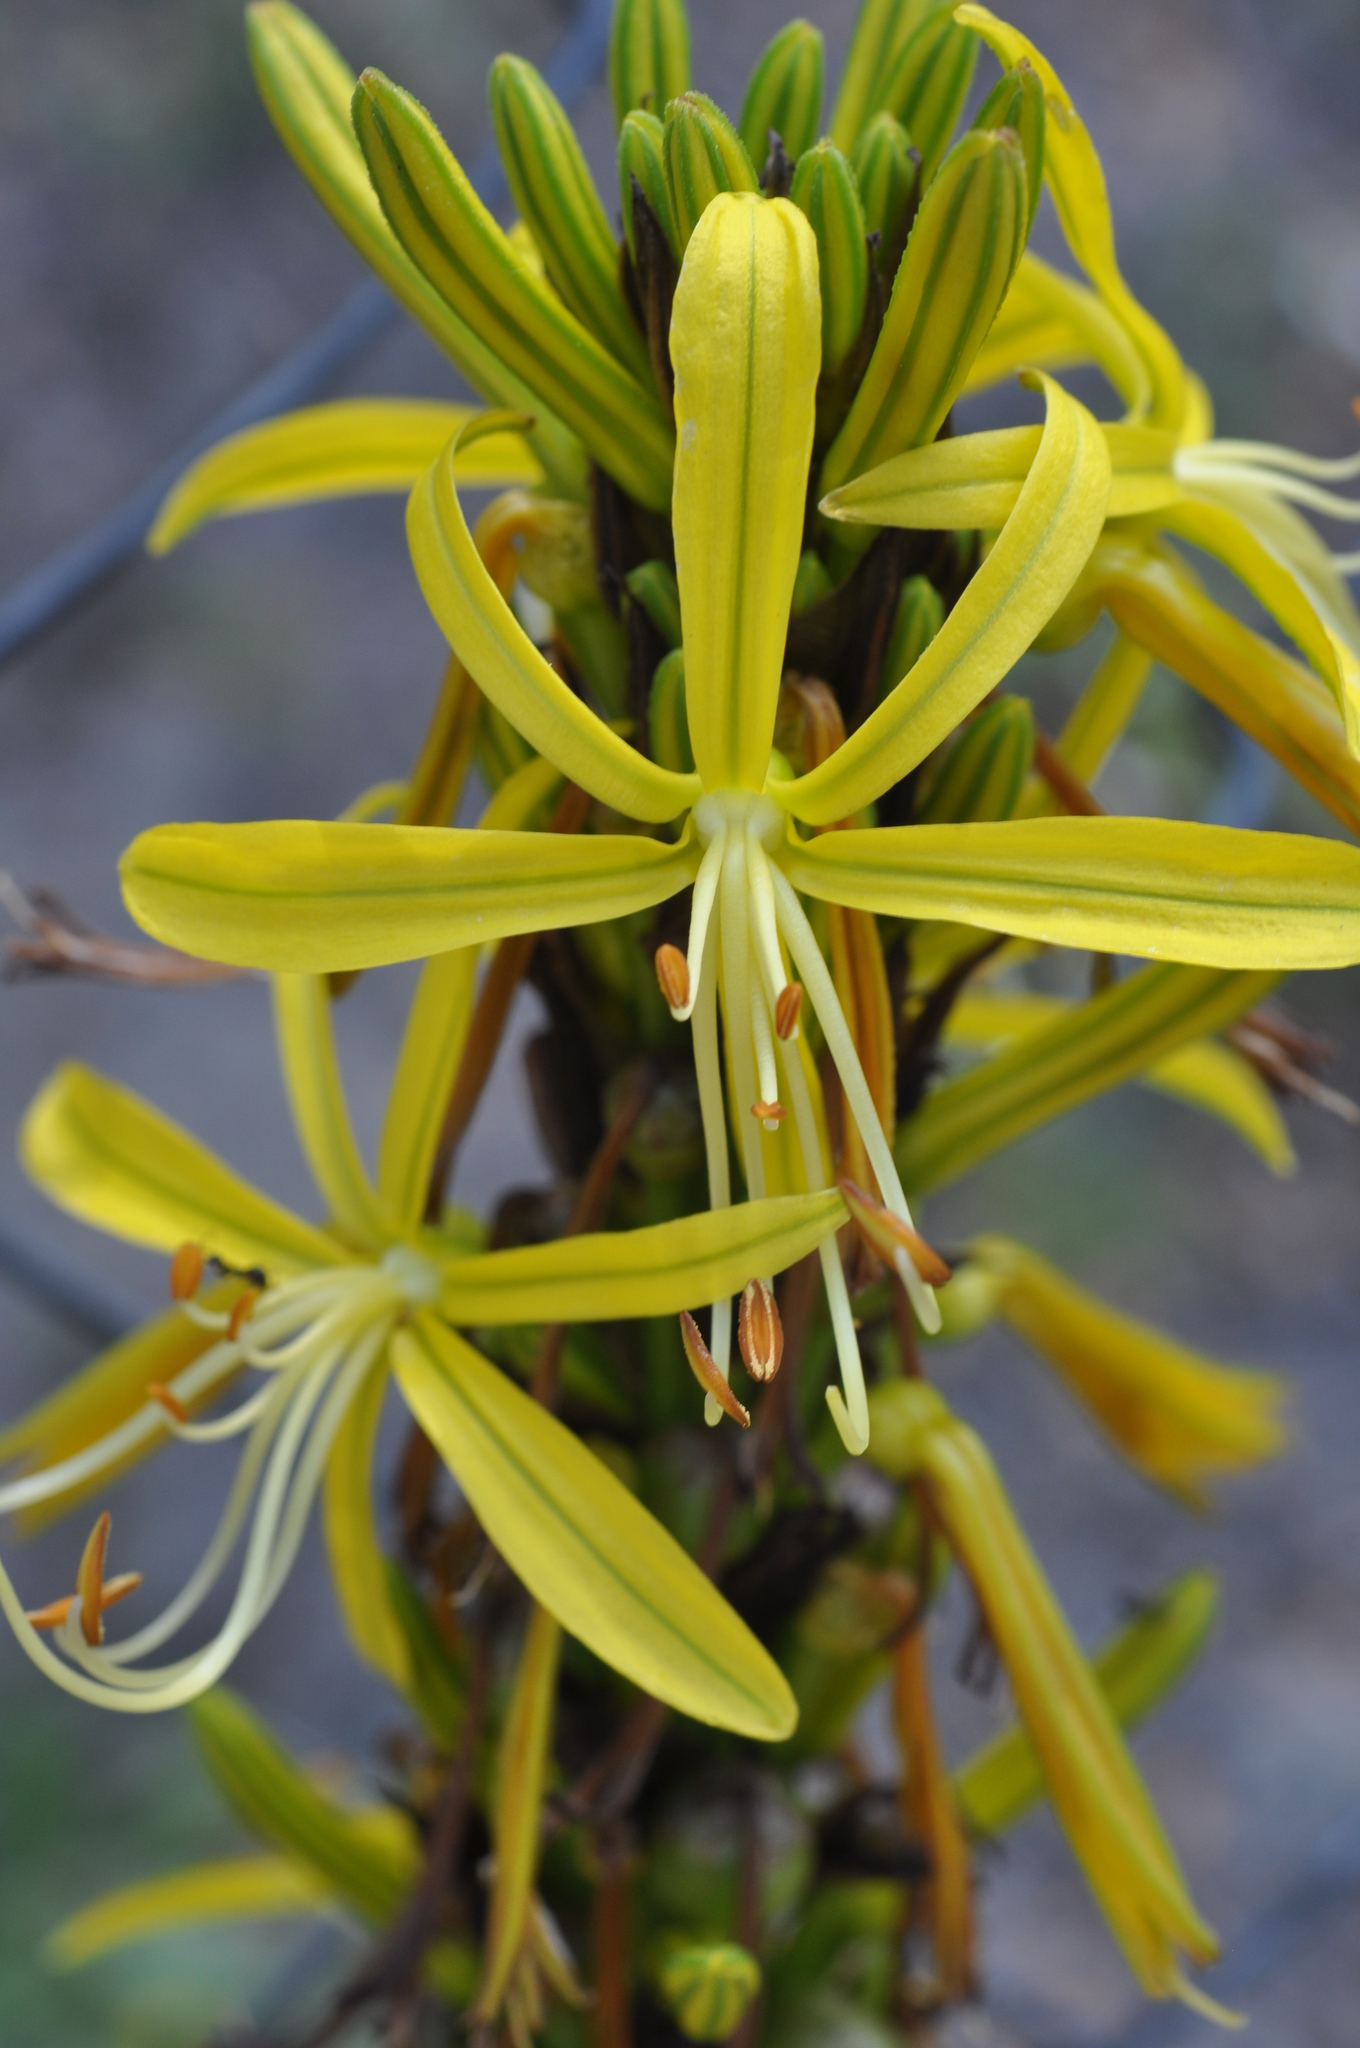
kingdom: Plantae
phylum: Tracheophyta
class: Liliopsida
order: Asparagales
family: Asphodelaceae
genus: Asphodeline
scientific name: Asphodeline lutea
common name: Yellow asphodel
